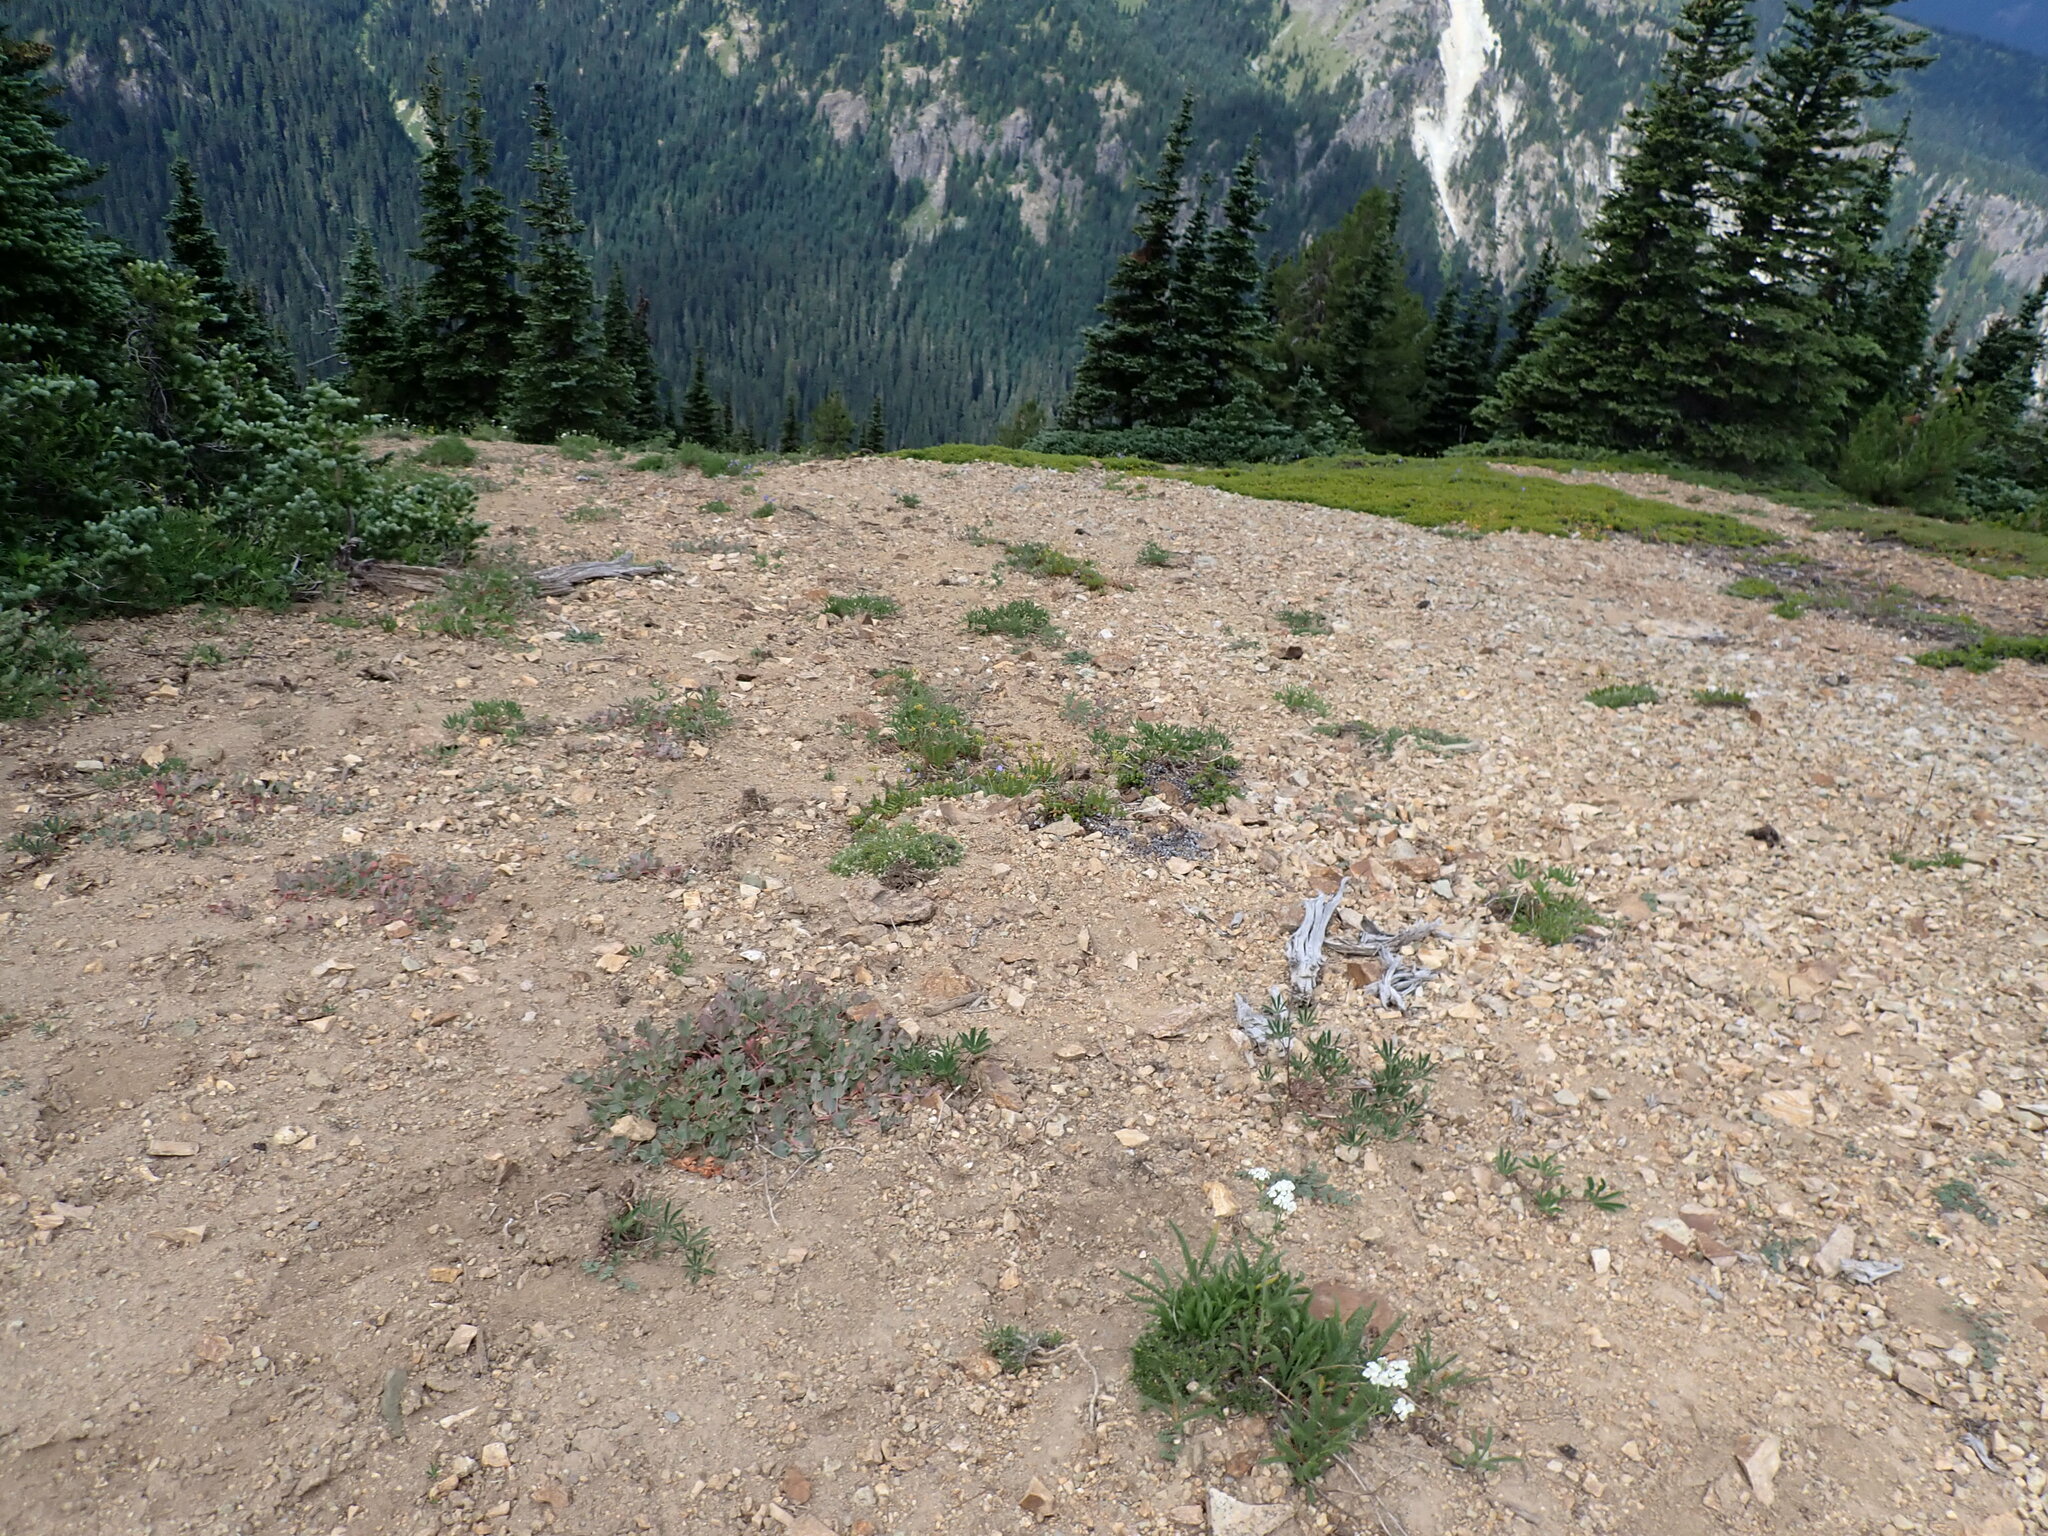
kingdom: Plantae
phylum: Tracheophyta
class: Magnoliopsida
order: Caryophyllales
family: Polygonaceae
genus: Koenigia
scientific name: Koenigia davisiae
